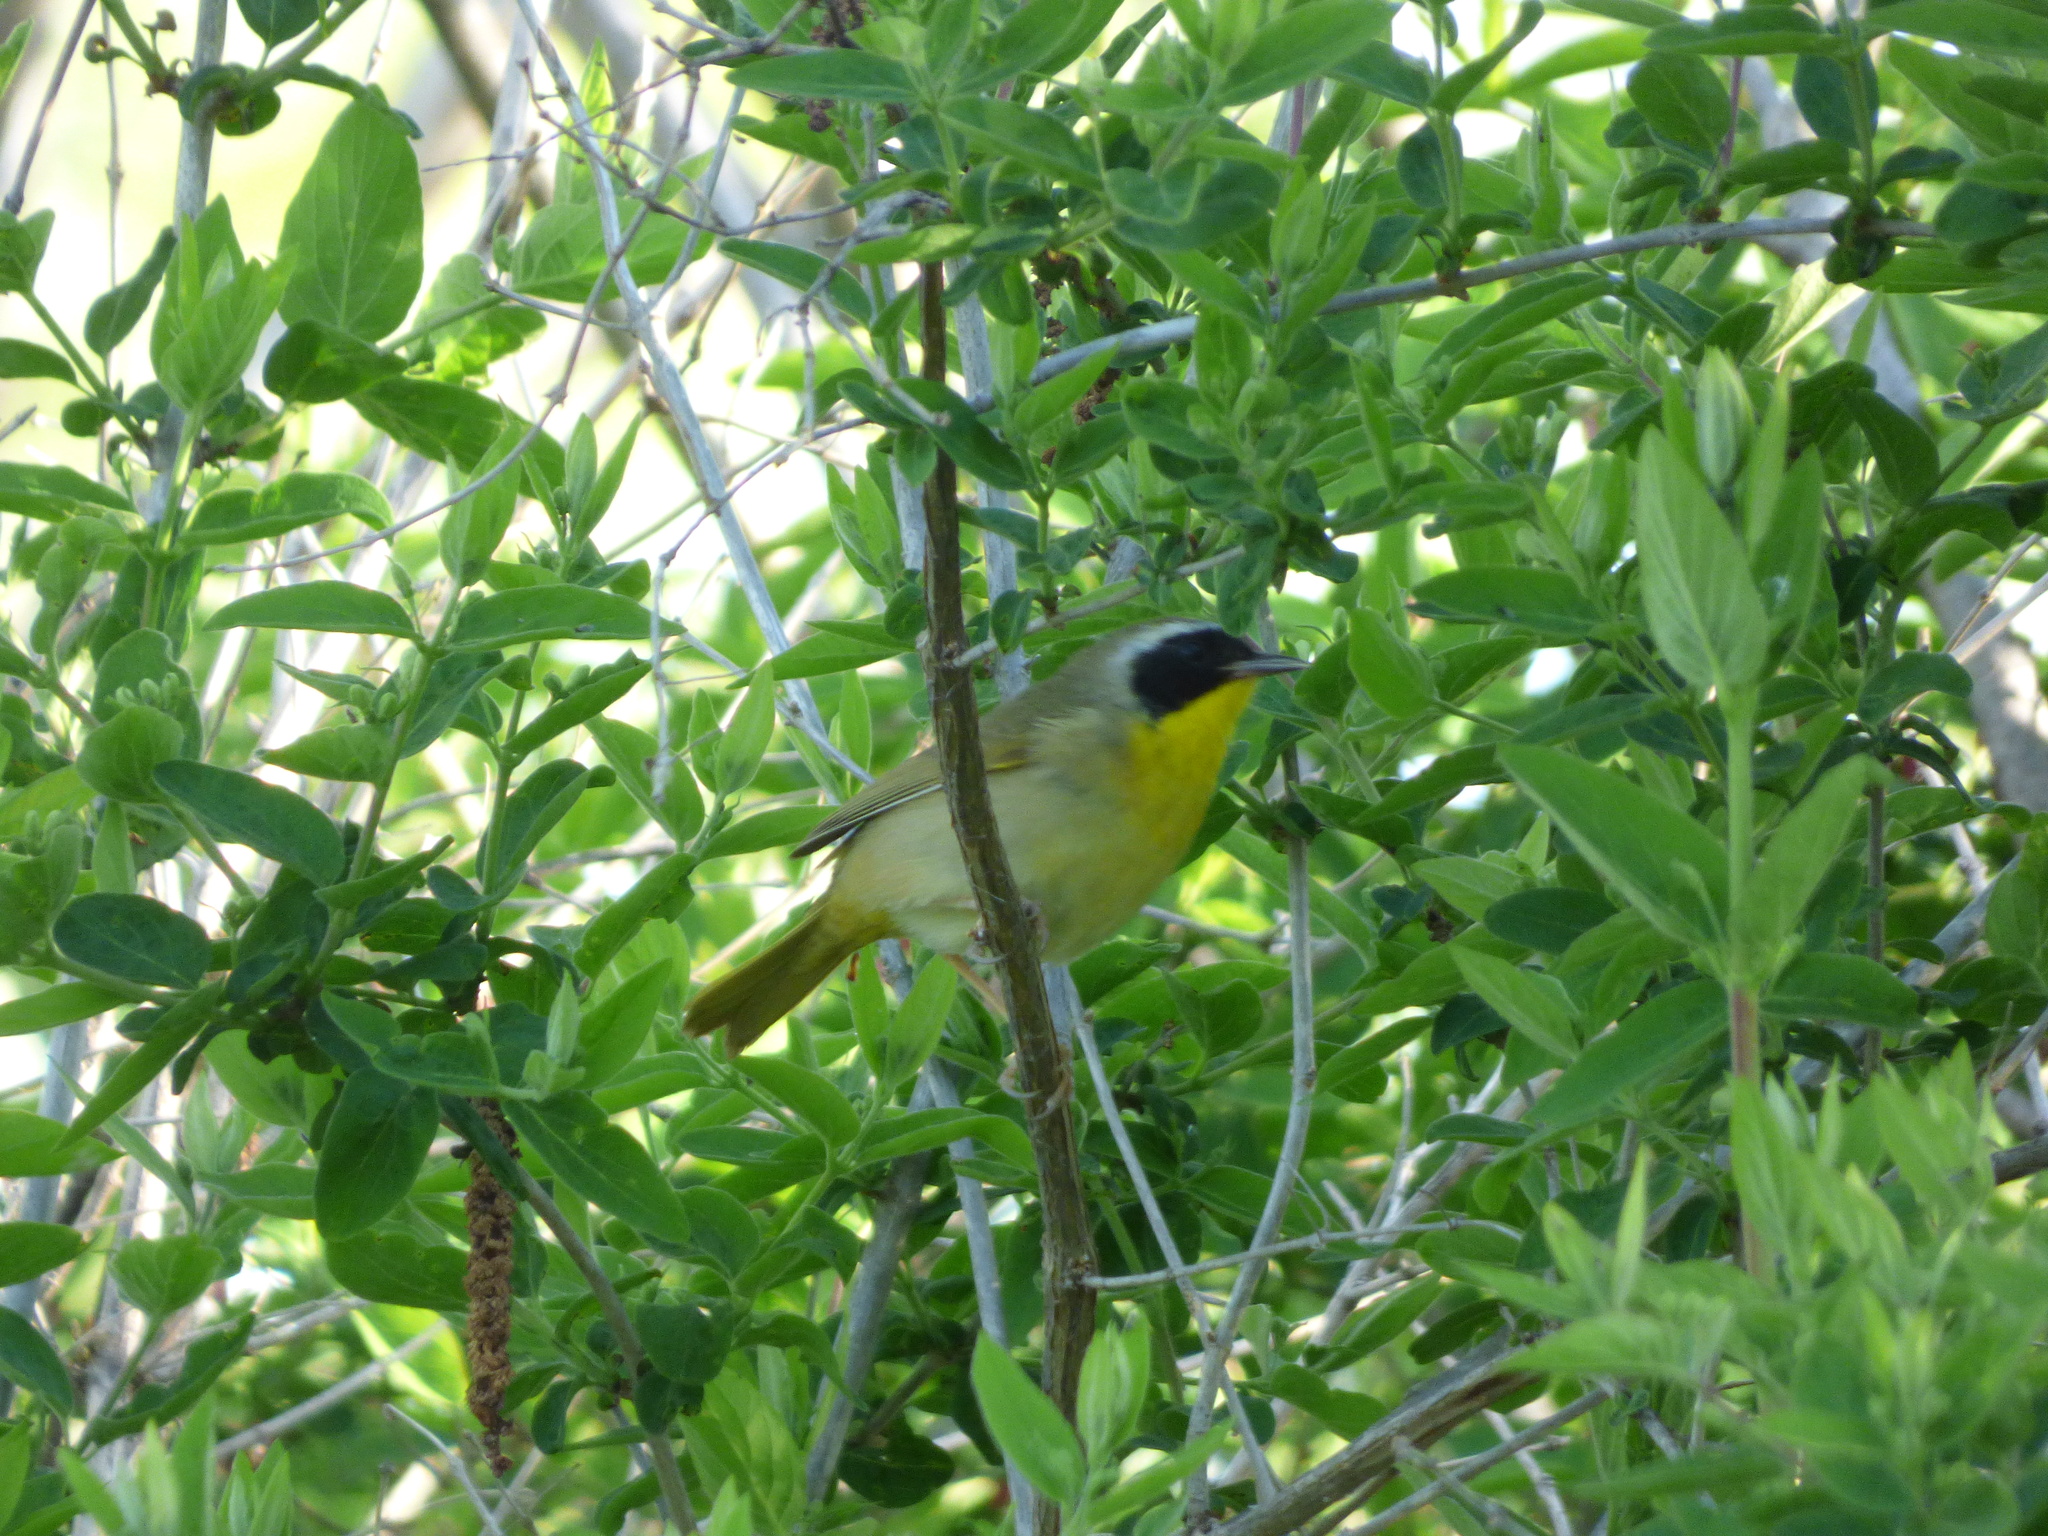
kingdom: Animalia
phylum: Chordata
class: Aves
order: Passeriformes
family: Parulidae
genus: Geothlypis
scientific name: Geothlypis trichas
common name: Common yellowthroat
